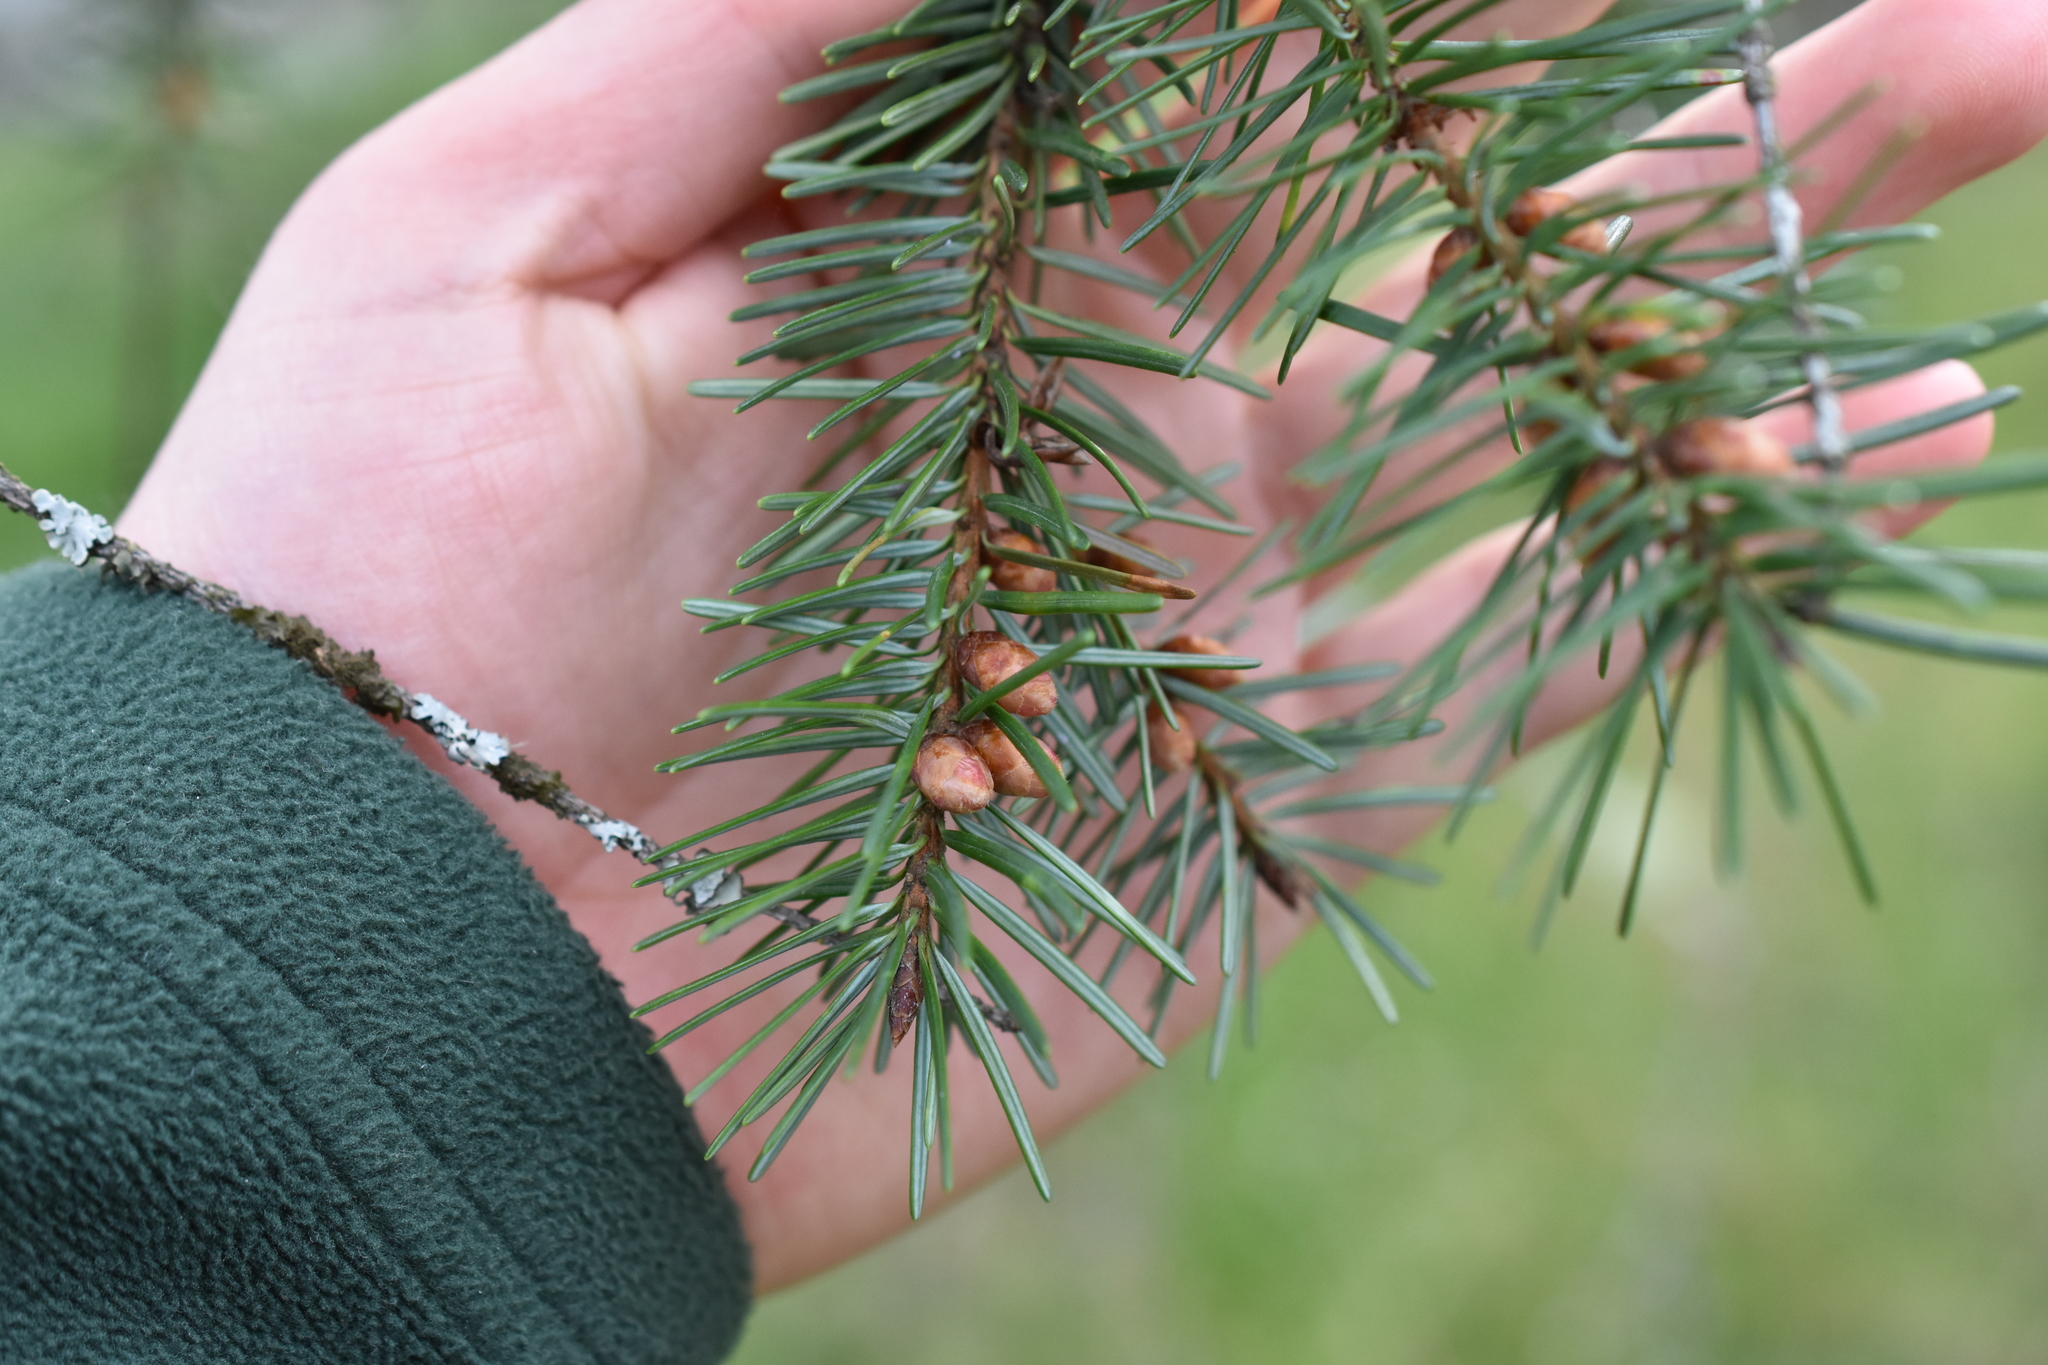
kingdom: Plantae
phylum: Tracheophyta
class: Pinopsida
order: Pinales
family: Pinaceae
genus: Pseudotsuga
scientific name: Pseudotsuga menziesii
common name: Douglas fir
